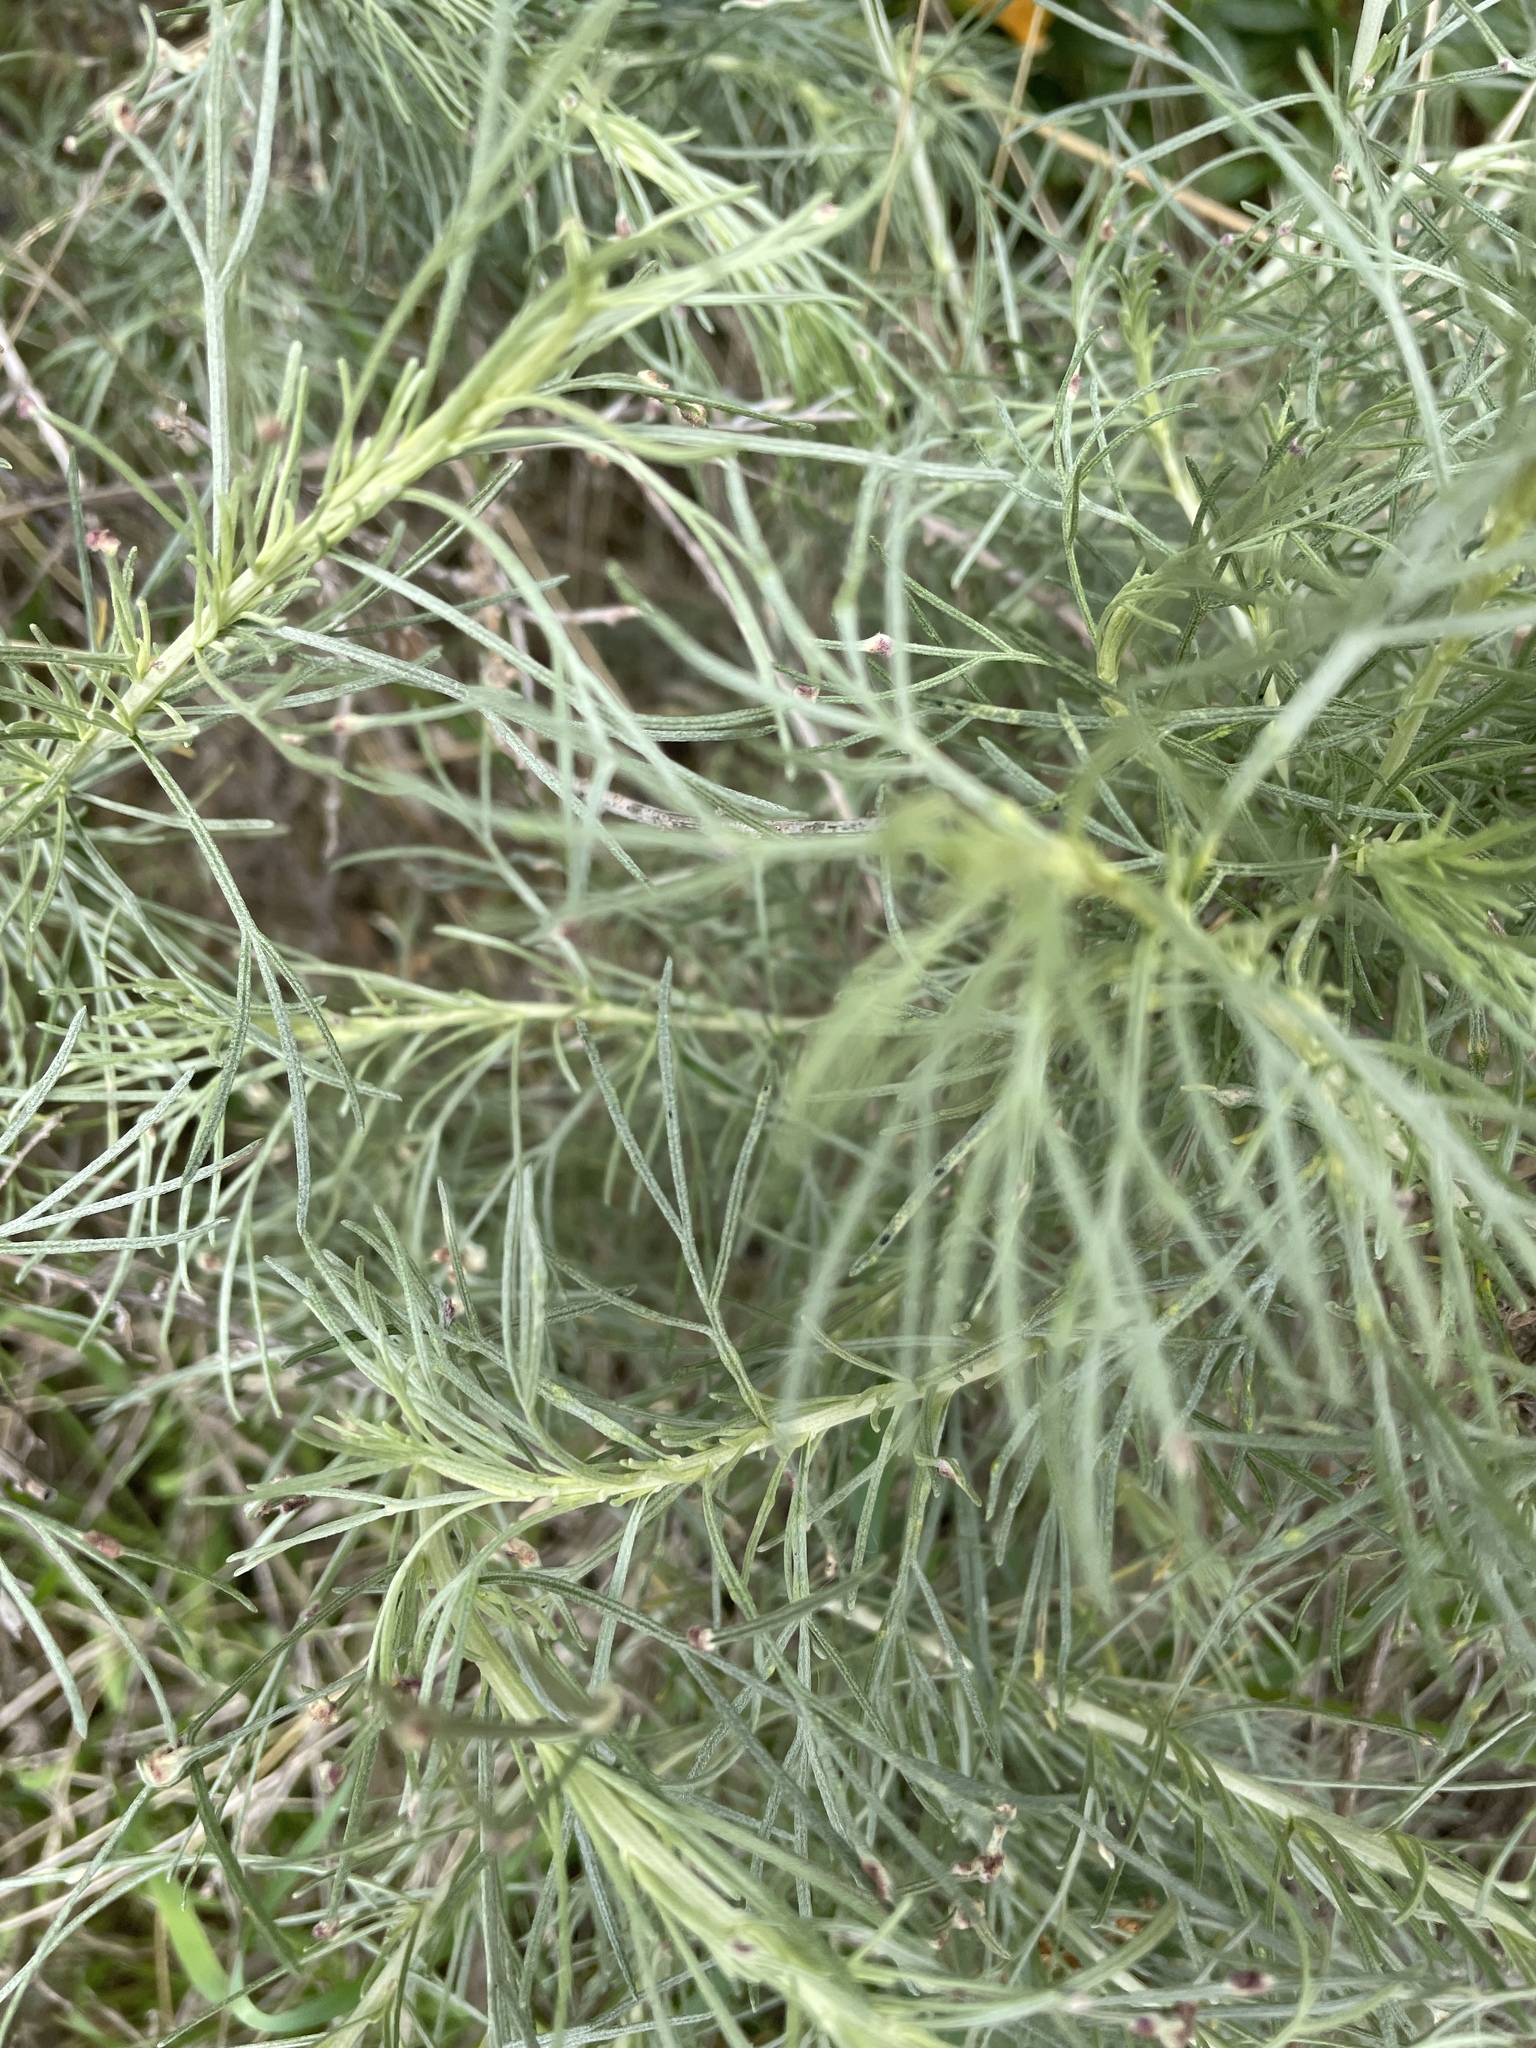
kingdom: Plantae
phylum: Tracheophyta
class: Magnoliopsida
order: Asterales
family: Asteraceae
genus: Artemisia
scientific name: Artemisia californica
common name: California sagebrush
